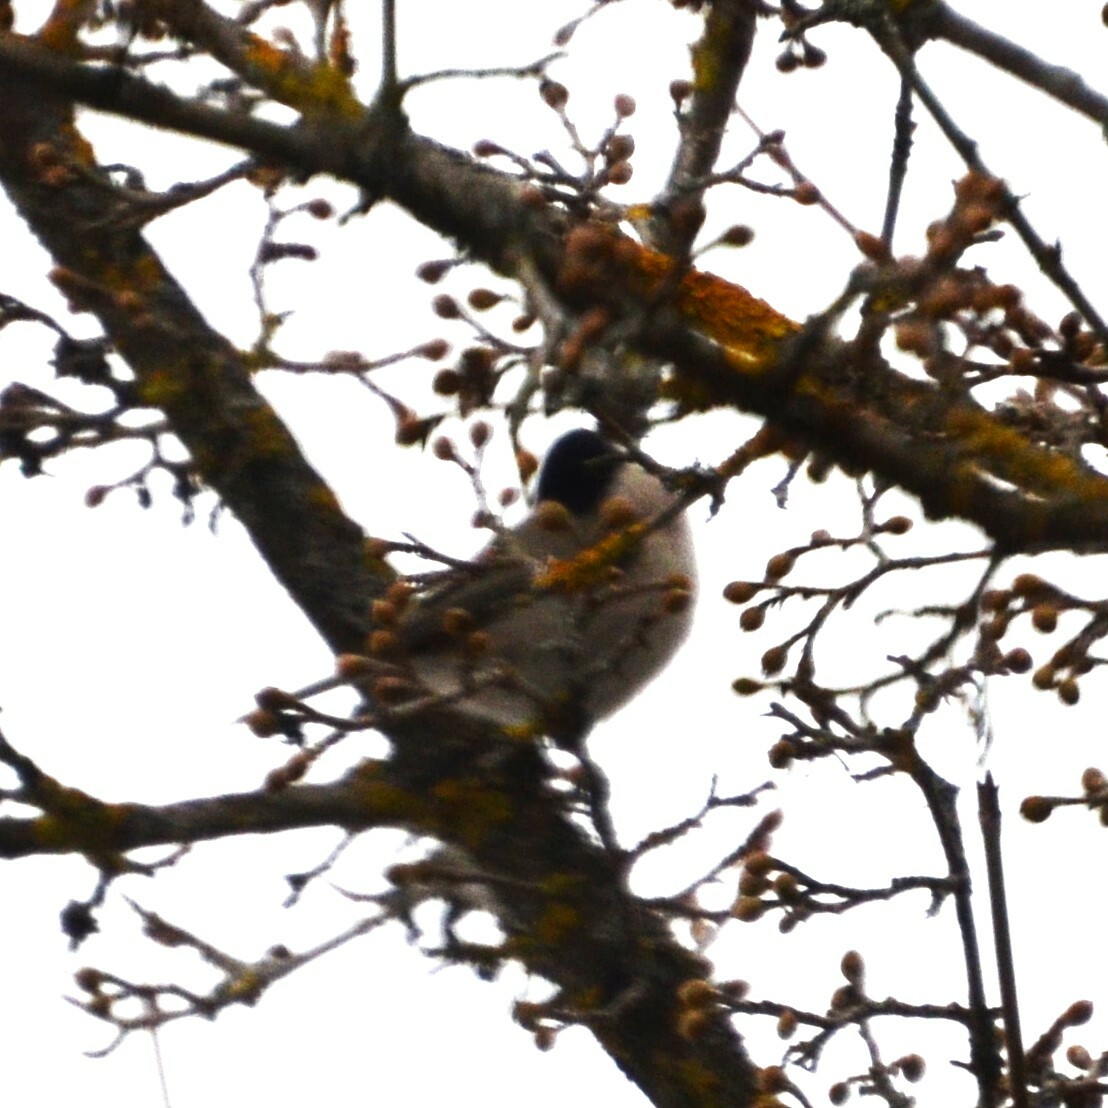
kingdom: Animalia
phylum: Chordata
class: Aves
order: Passeriformes
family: Paridae
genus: Poecile
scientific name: Poecile palustris
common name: Marsh tit
